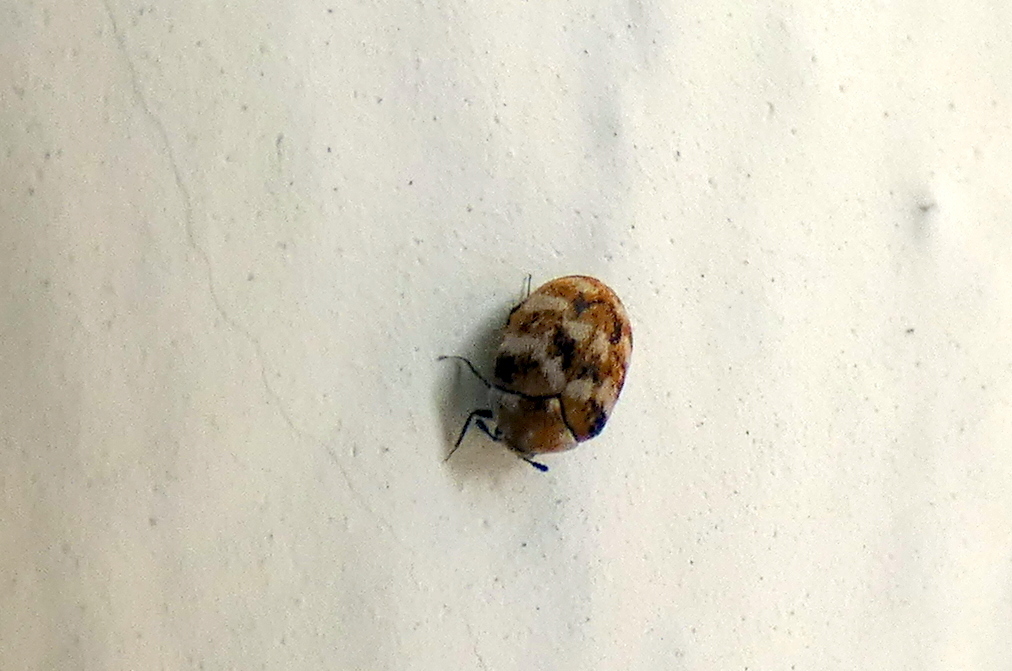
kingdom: Animalia
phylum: Arthropoda
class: Insecta
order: Coleoptera
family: Dermestidae
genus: Anthrenus
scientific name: Anthrenus verbasci
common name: Varied carpet beetle
